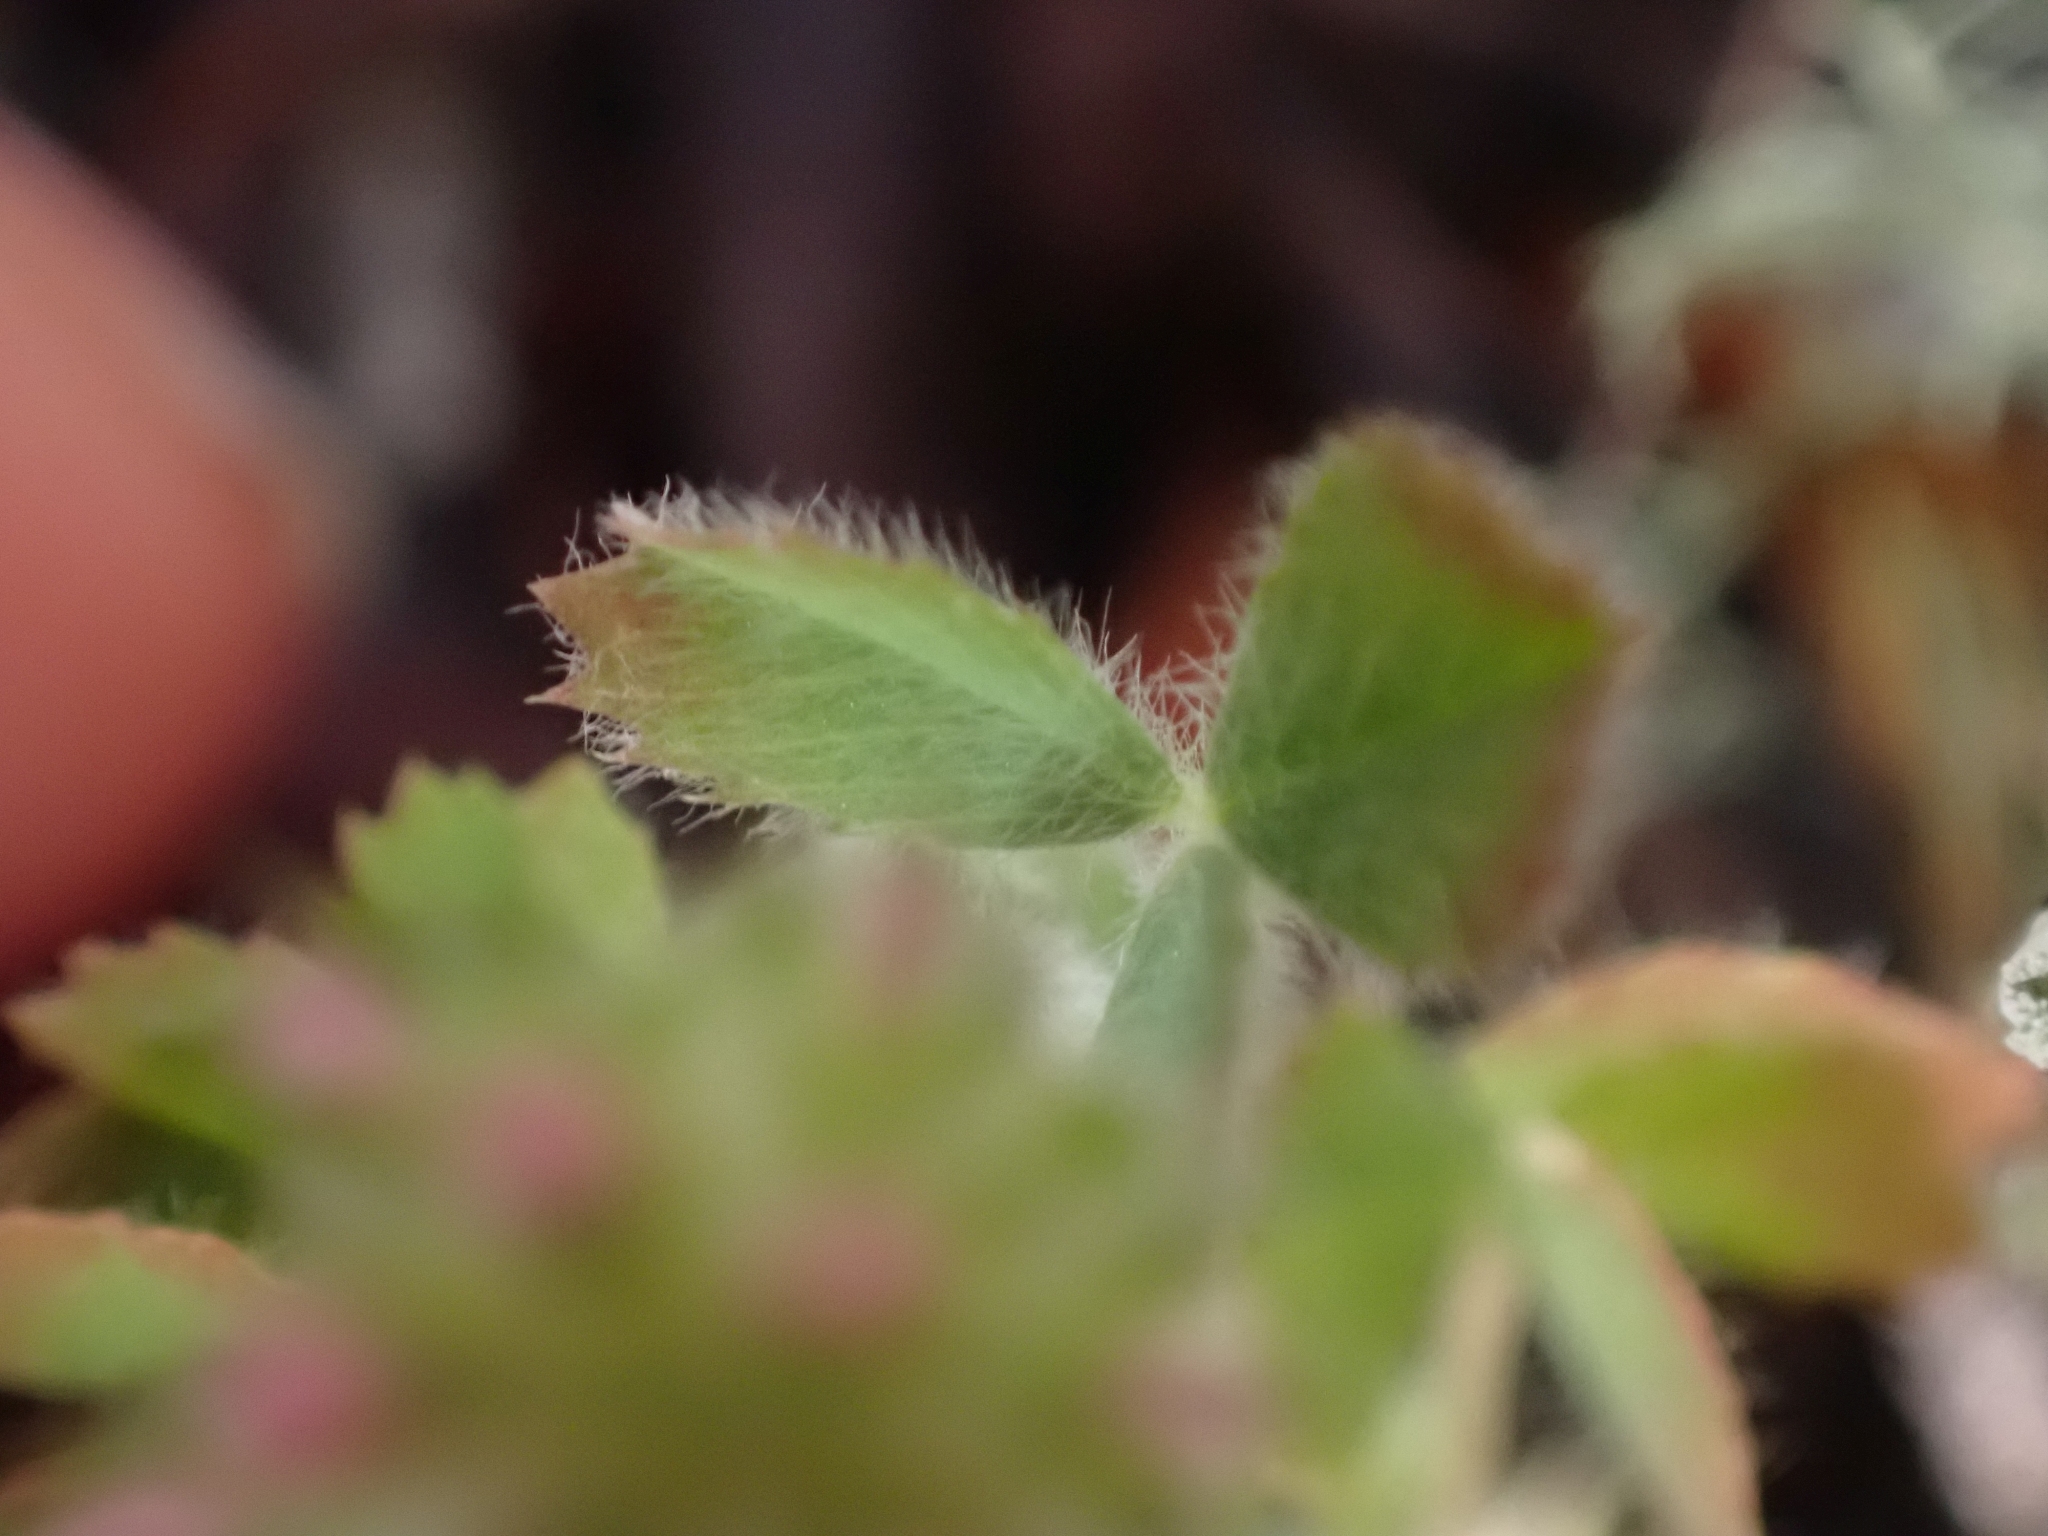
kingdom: Plantae
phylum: Tracheophyta
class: Magnoliopsida
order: Fabales
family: Fabaceae
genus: Trifolium
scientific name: Trifolium microcephalum
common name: Maiden clover
